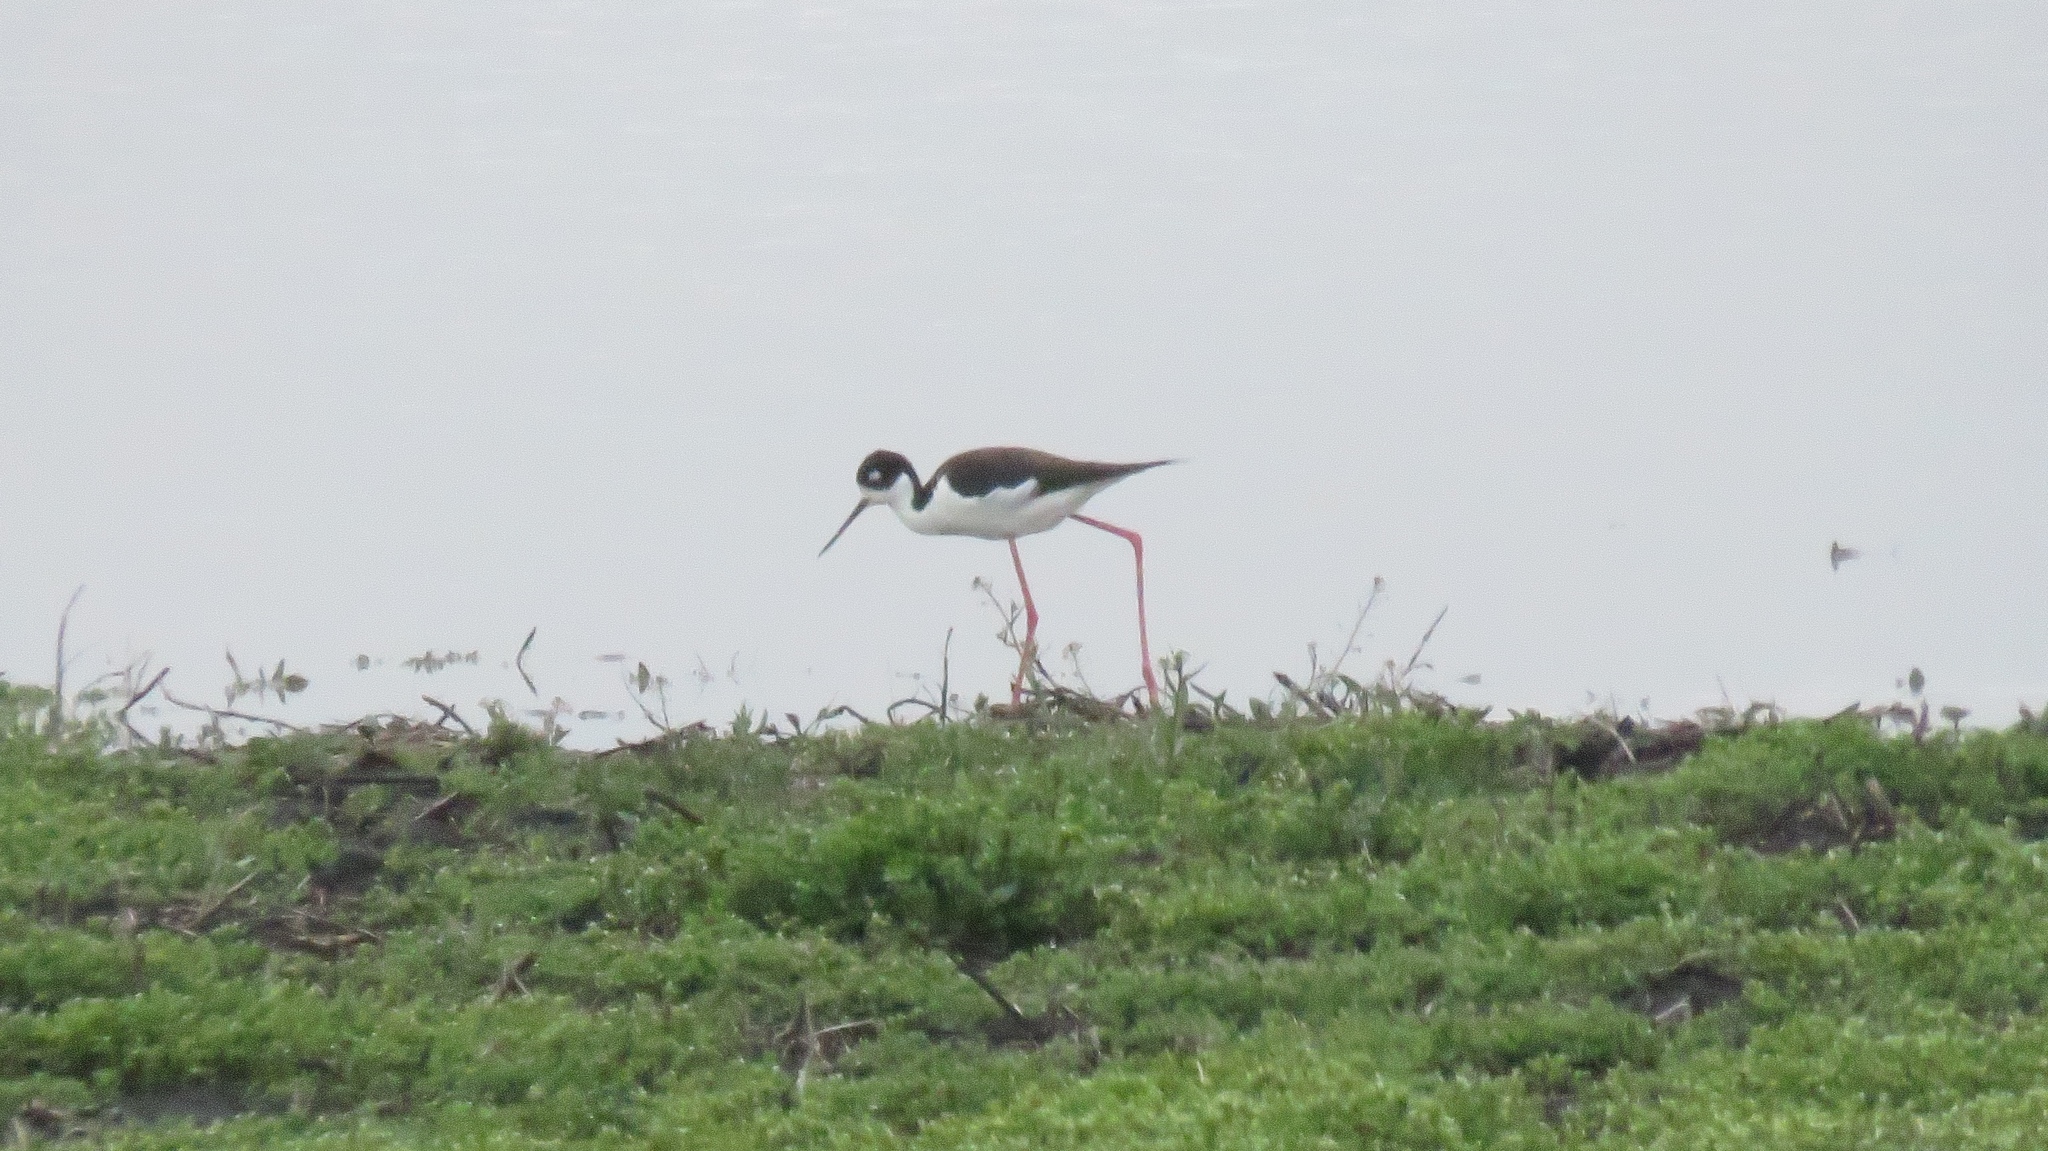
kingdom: Animalia
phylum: Chordata
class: Aves
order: Charadriiformes
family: Recurvirostridae
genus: Himantopus
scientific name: Himantopus mexicanus
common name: Black-necked stilt
